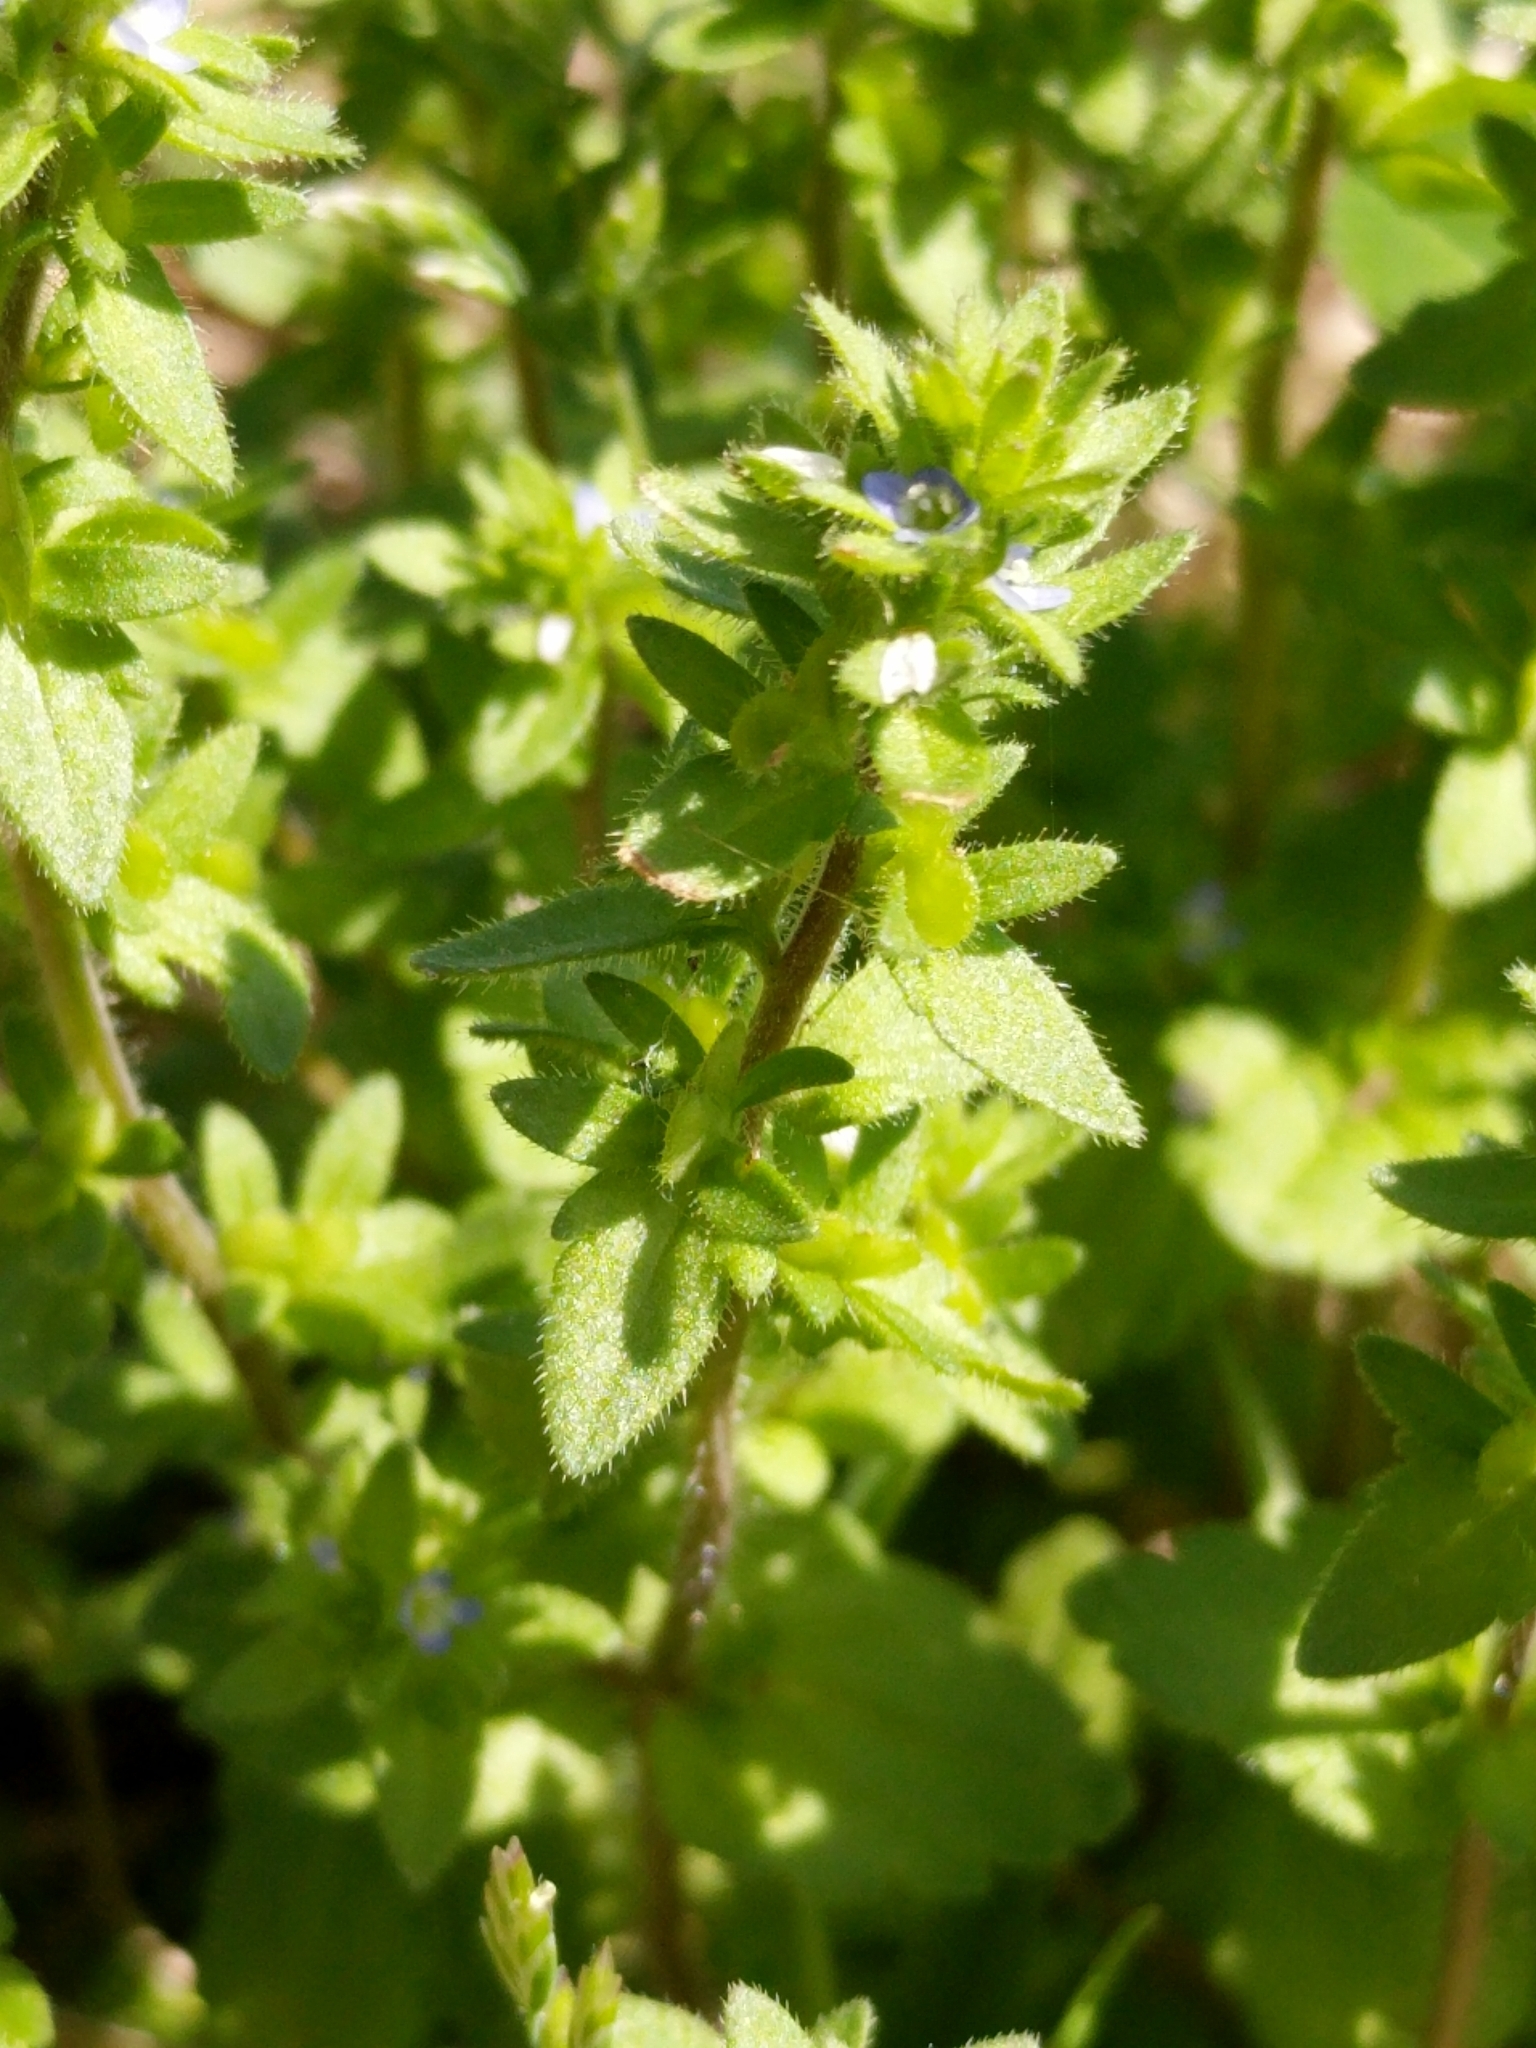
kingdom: Plantae
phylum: Tracheophyta
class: Magnoliopsida
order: Lamiales
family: Plantaginaceae
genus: Veronica
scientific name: Veronica arvensis
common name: Corn speedwell
